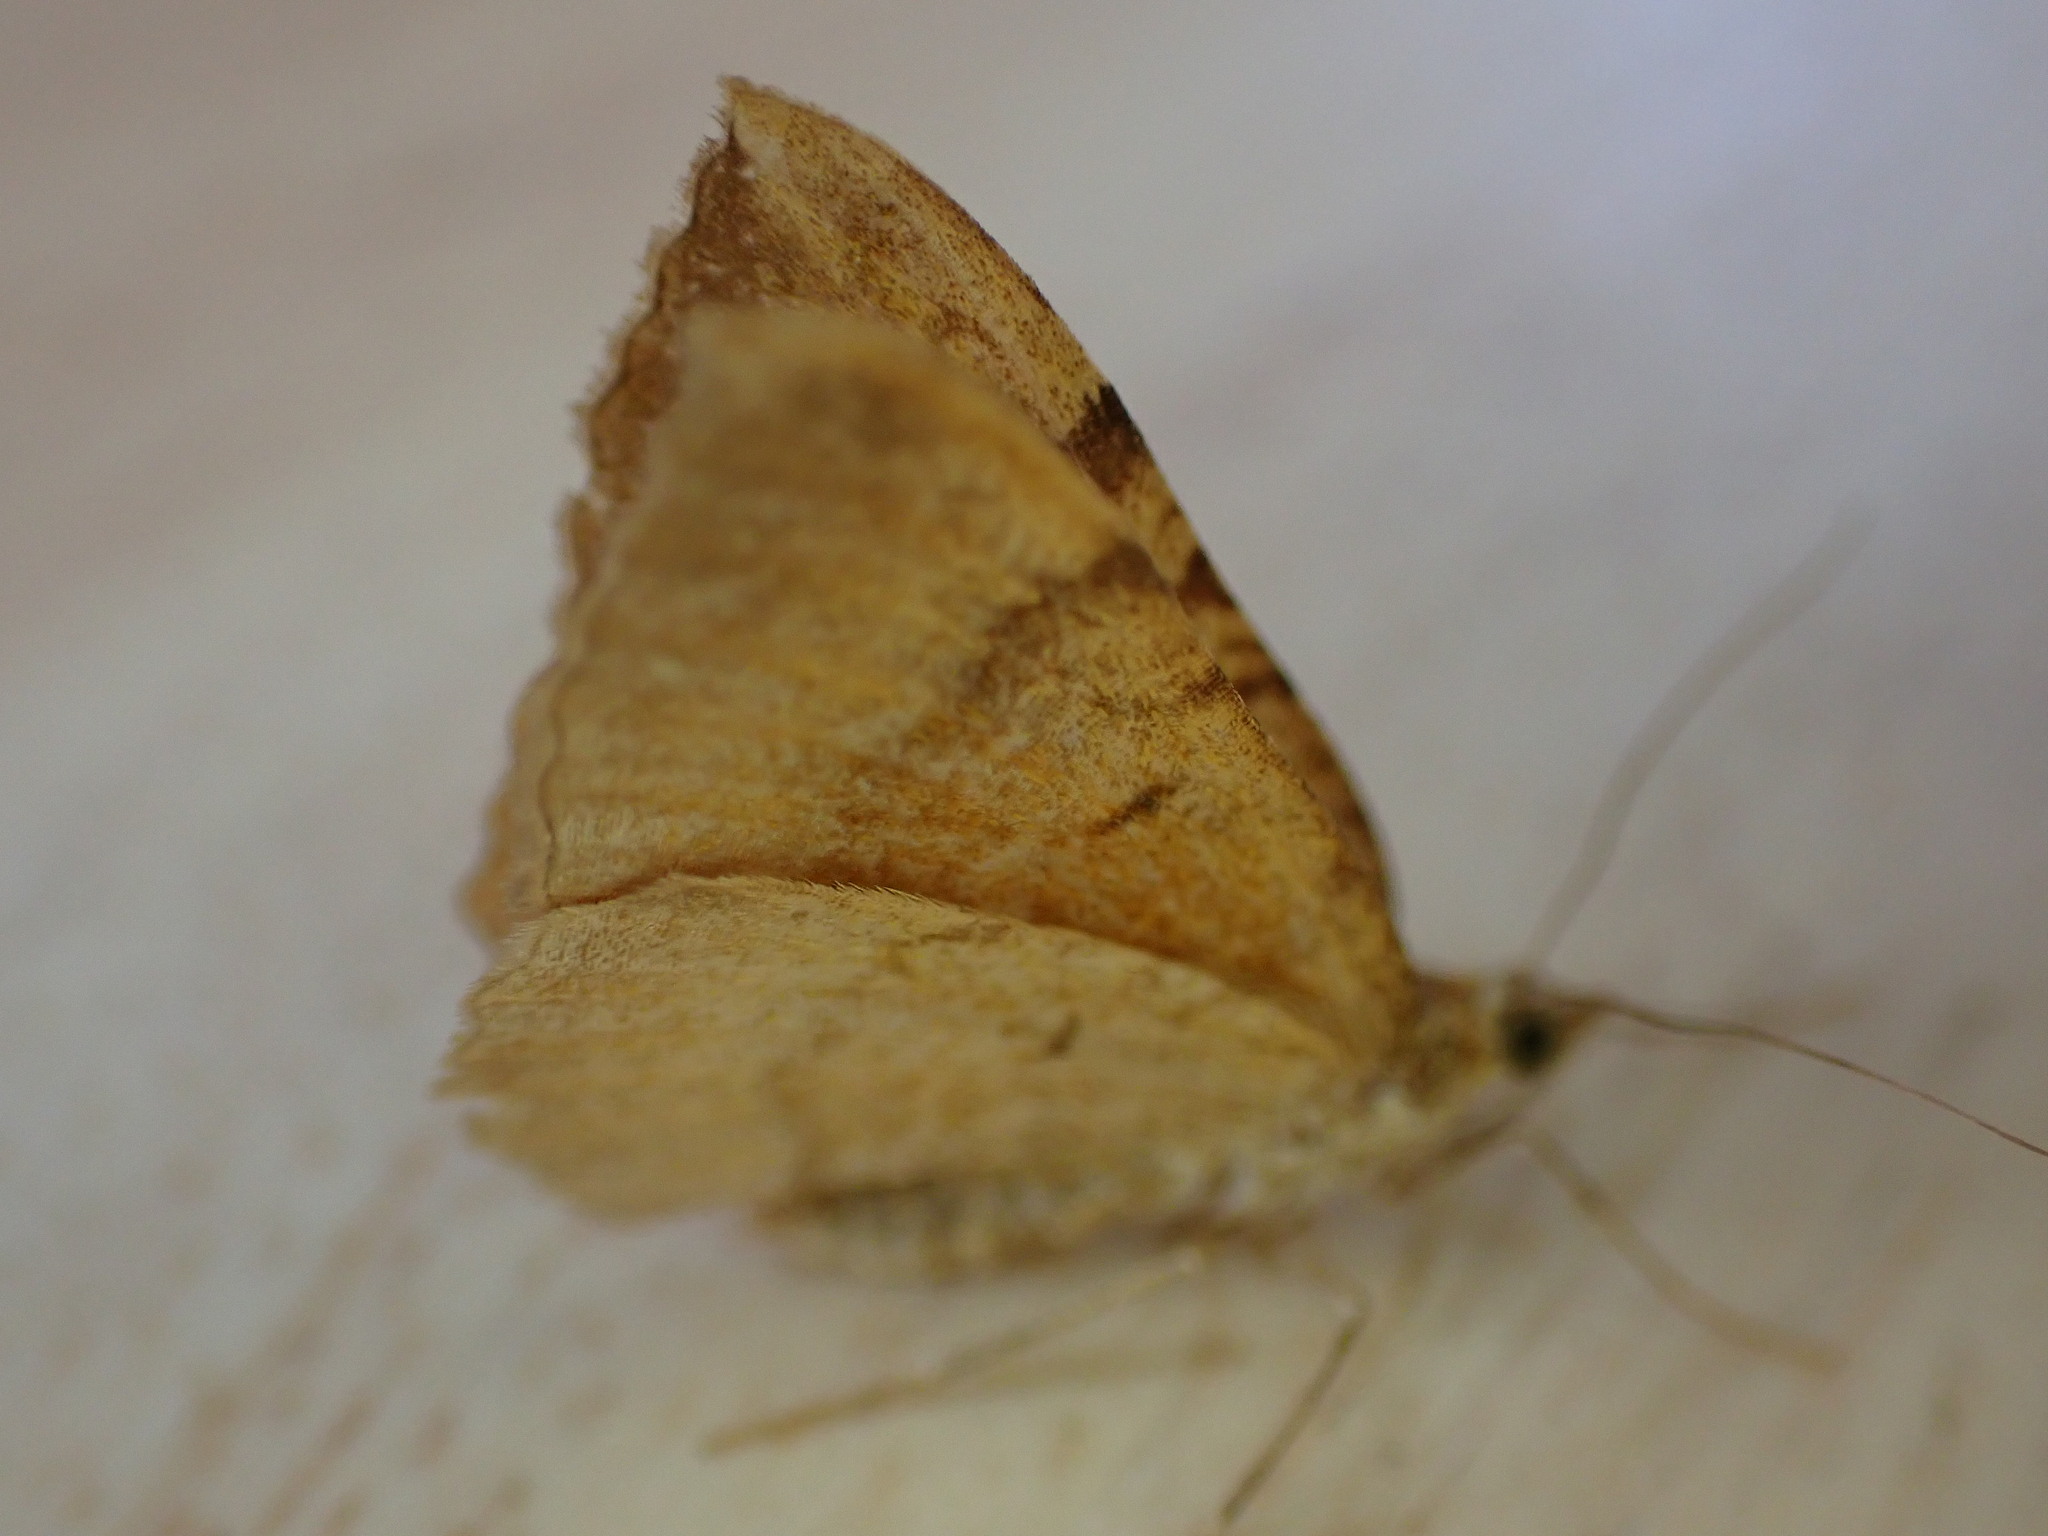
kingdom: Animalia
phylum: Arthropoda
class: Insecta
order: Lepidoptera
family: Geometridae
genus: Camptogramma
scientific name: Camptogramma bilineata
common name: Yellow shell
